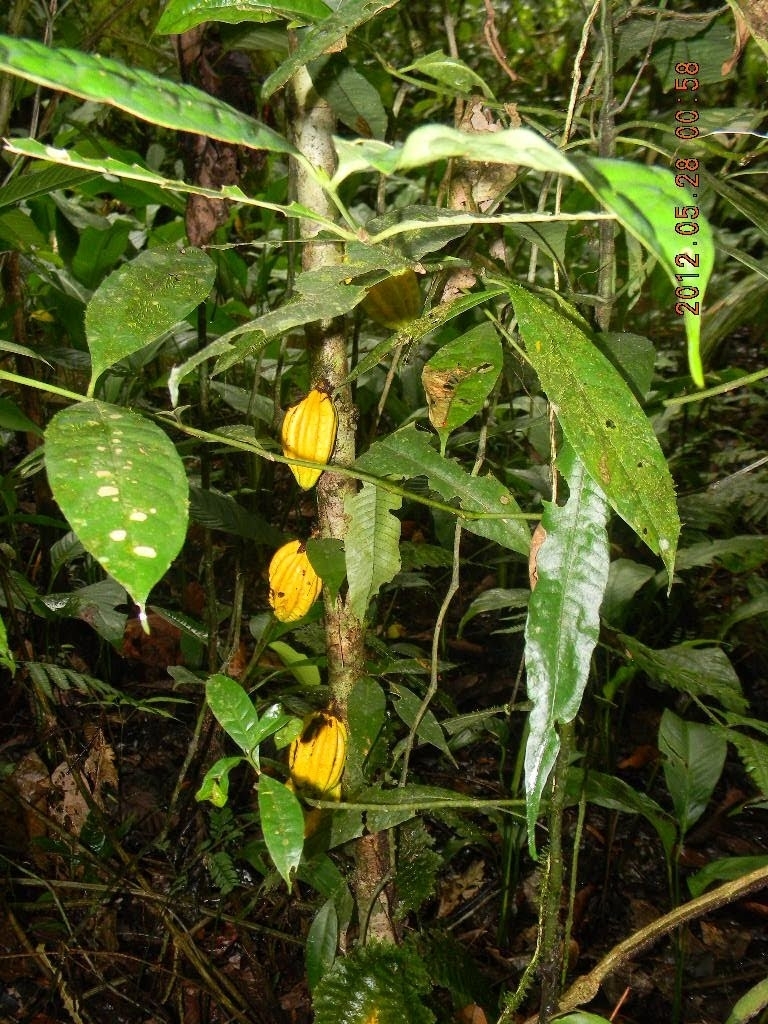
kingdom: Plantae
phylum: Tracheophyta
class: Magnoliopsida
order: Malvales
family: Malvaceae
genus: Herrania
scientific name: Herrania purpurea
